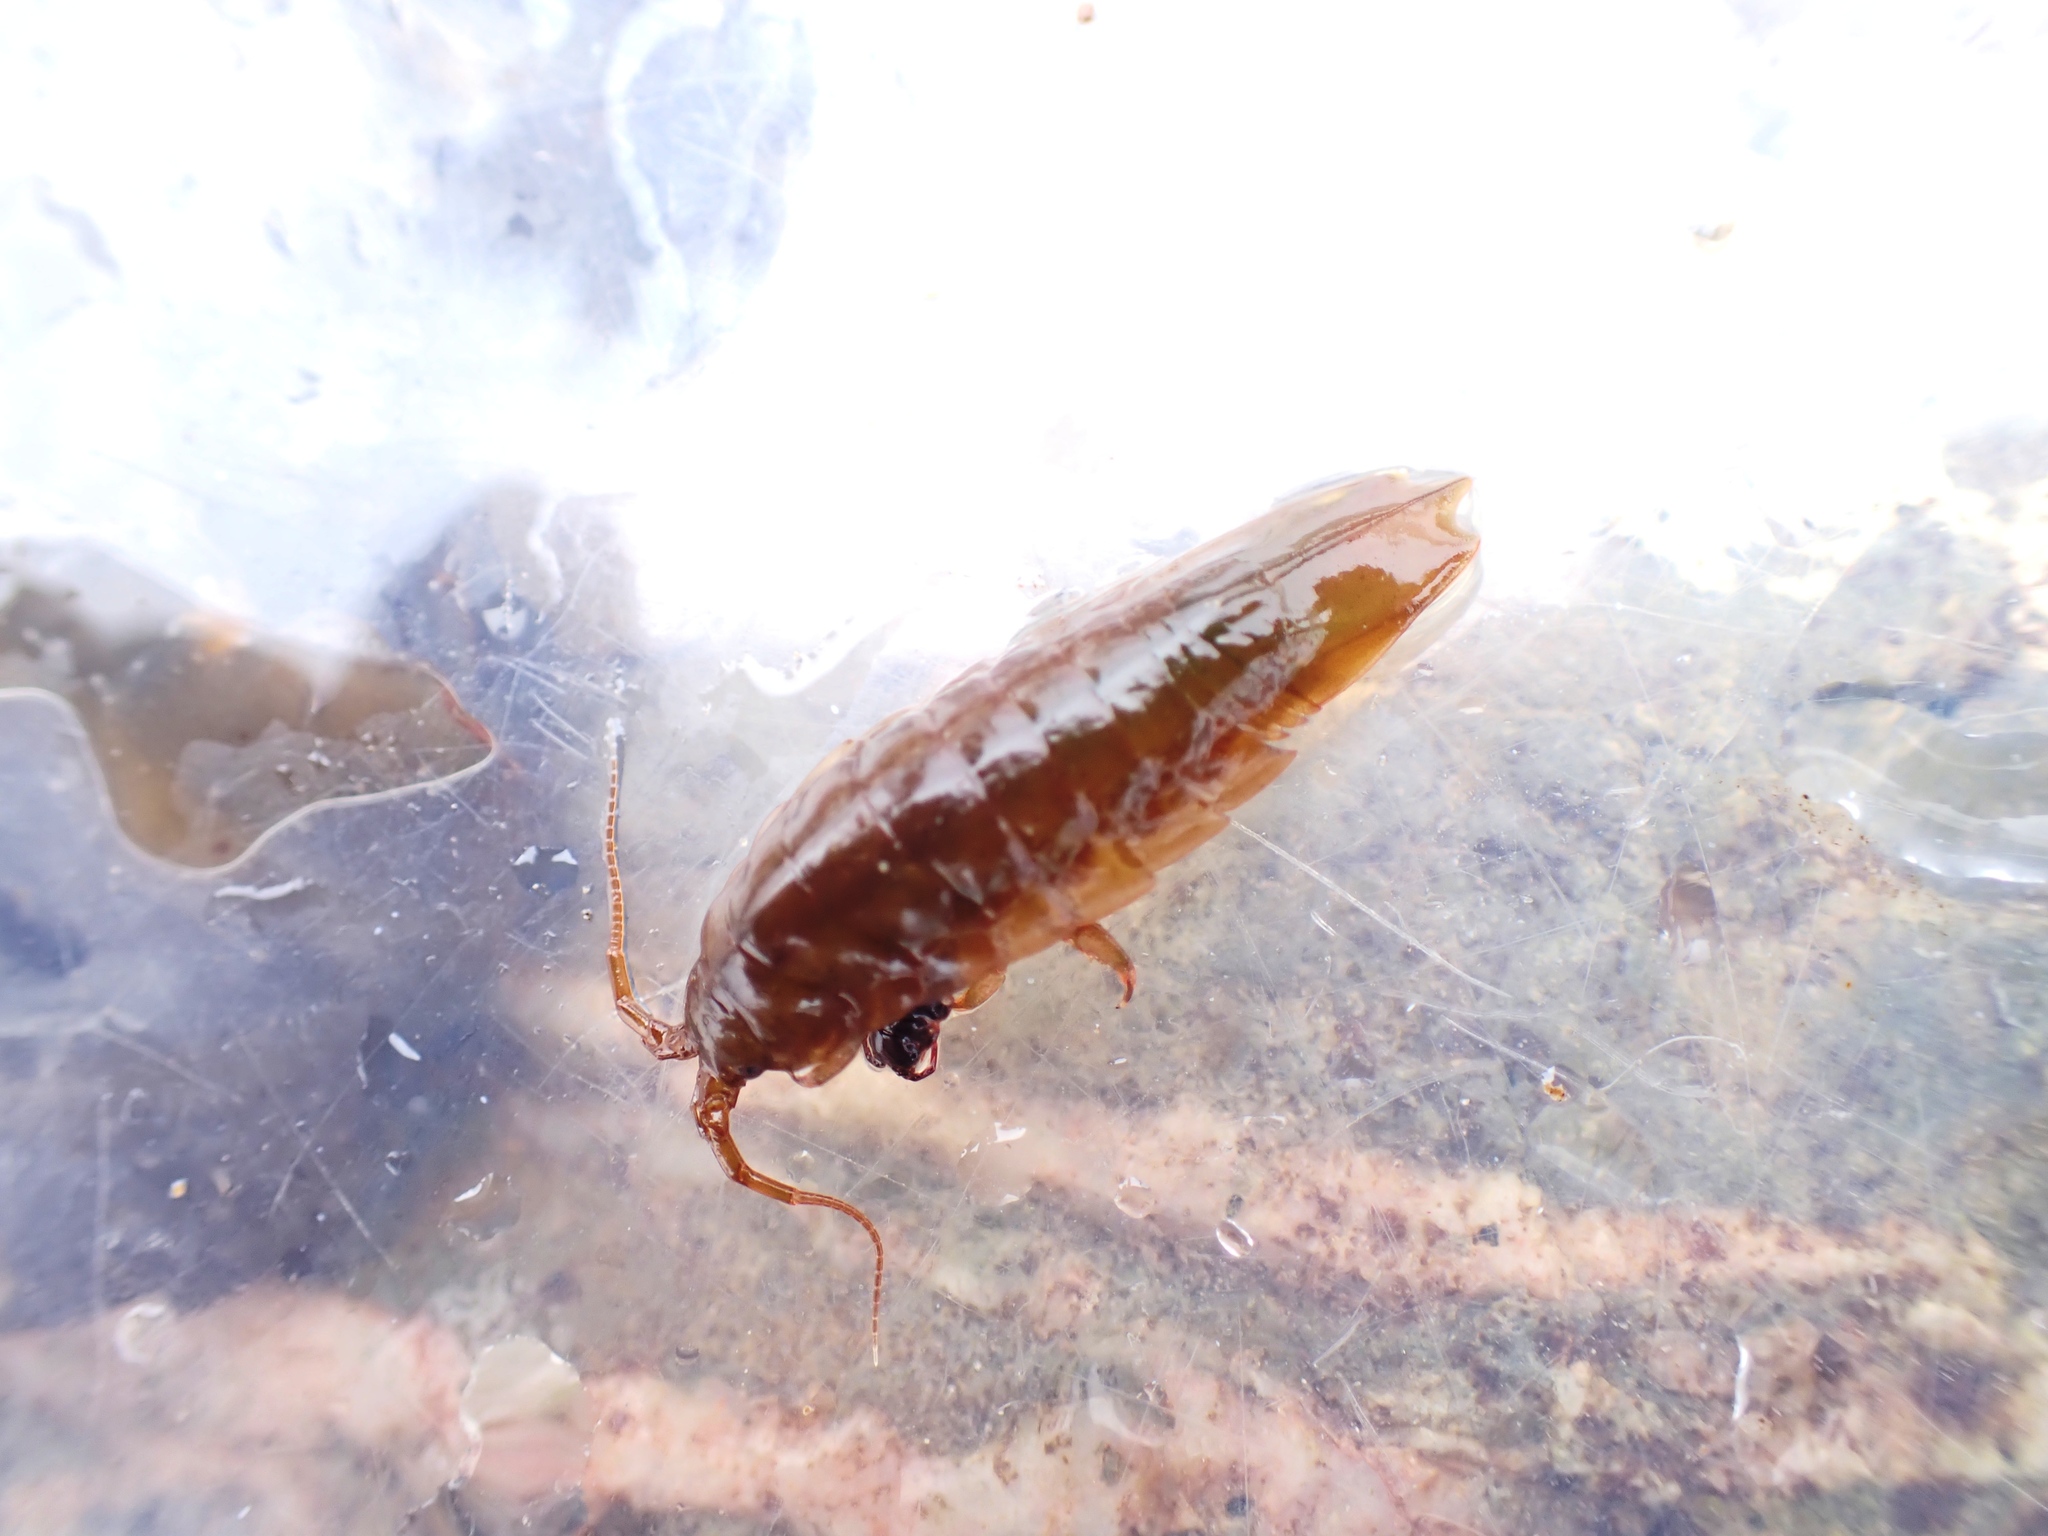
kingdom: Animalia
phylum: Arthropoda
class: Malacostraca
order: Isopoda
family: Idoteidae
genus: Idotea
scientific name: Idotea balthica
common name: Baltic isopod
